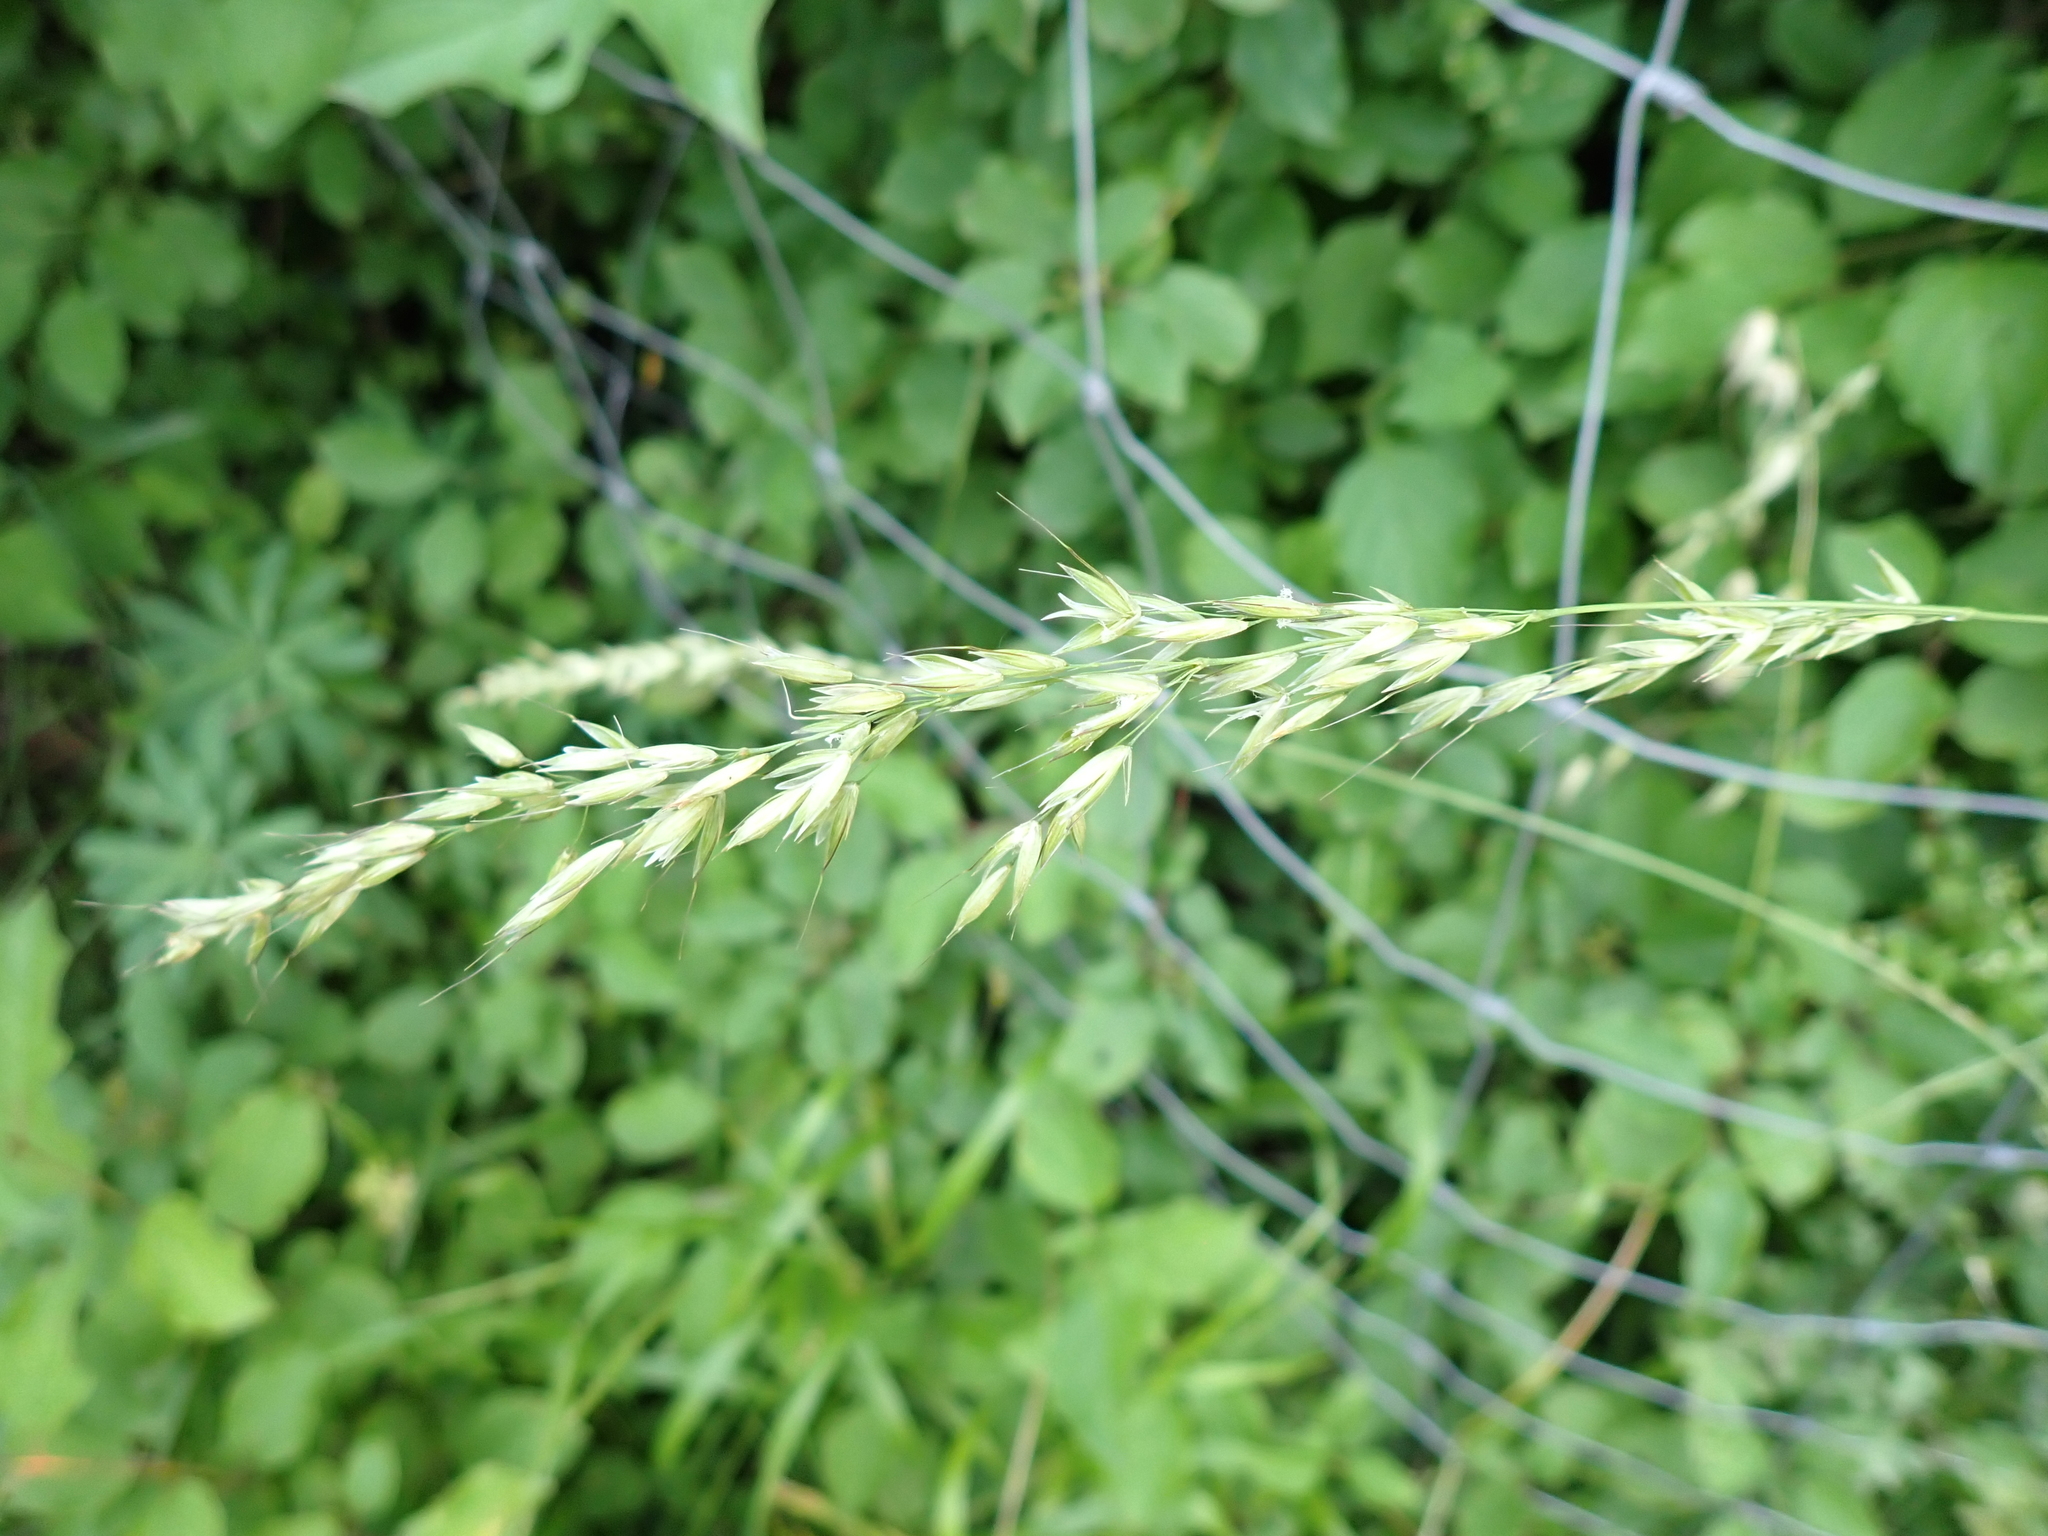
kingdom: Plantae
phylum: Tracheophyta
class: Liliopsida
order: Poales
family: Poaceae
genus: Arrhenatherum
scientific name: Arrhenatherum elatius
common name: Tall oatgrass
